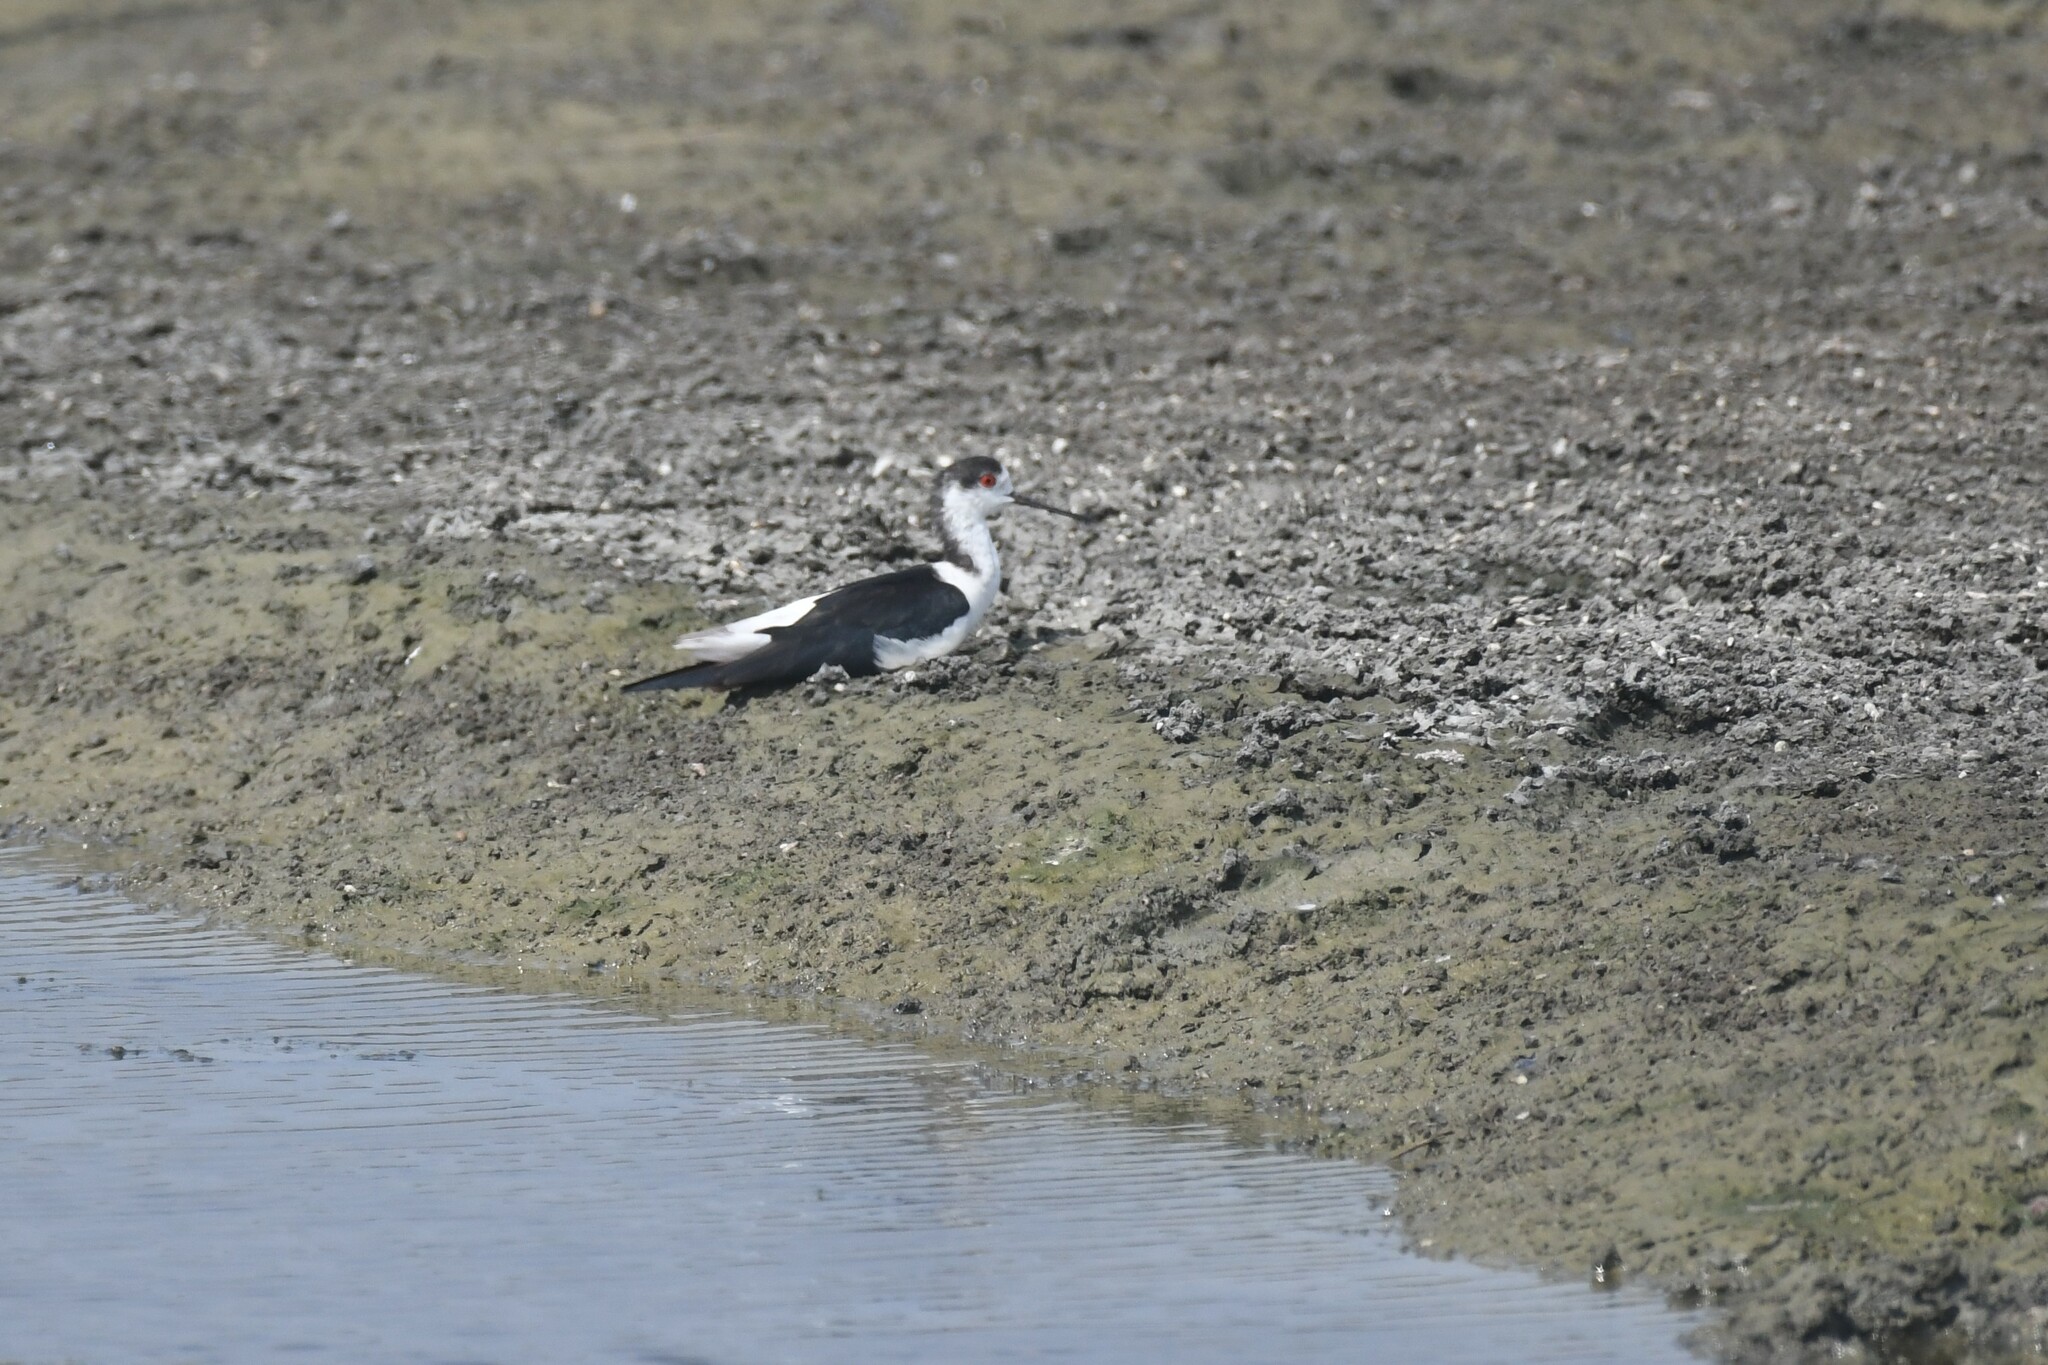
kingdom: Animalia
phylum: Chordata
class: Aves
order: Charadriiformes
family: Recurvirostridae
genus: Himantopus
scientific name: Himantopus himantopus
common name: Black-winged stilt
